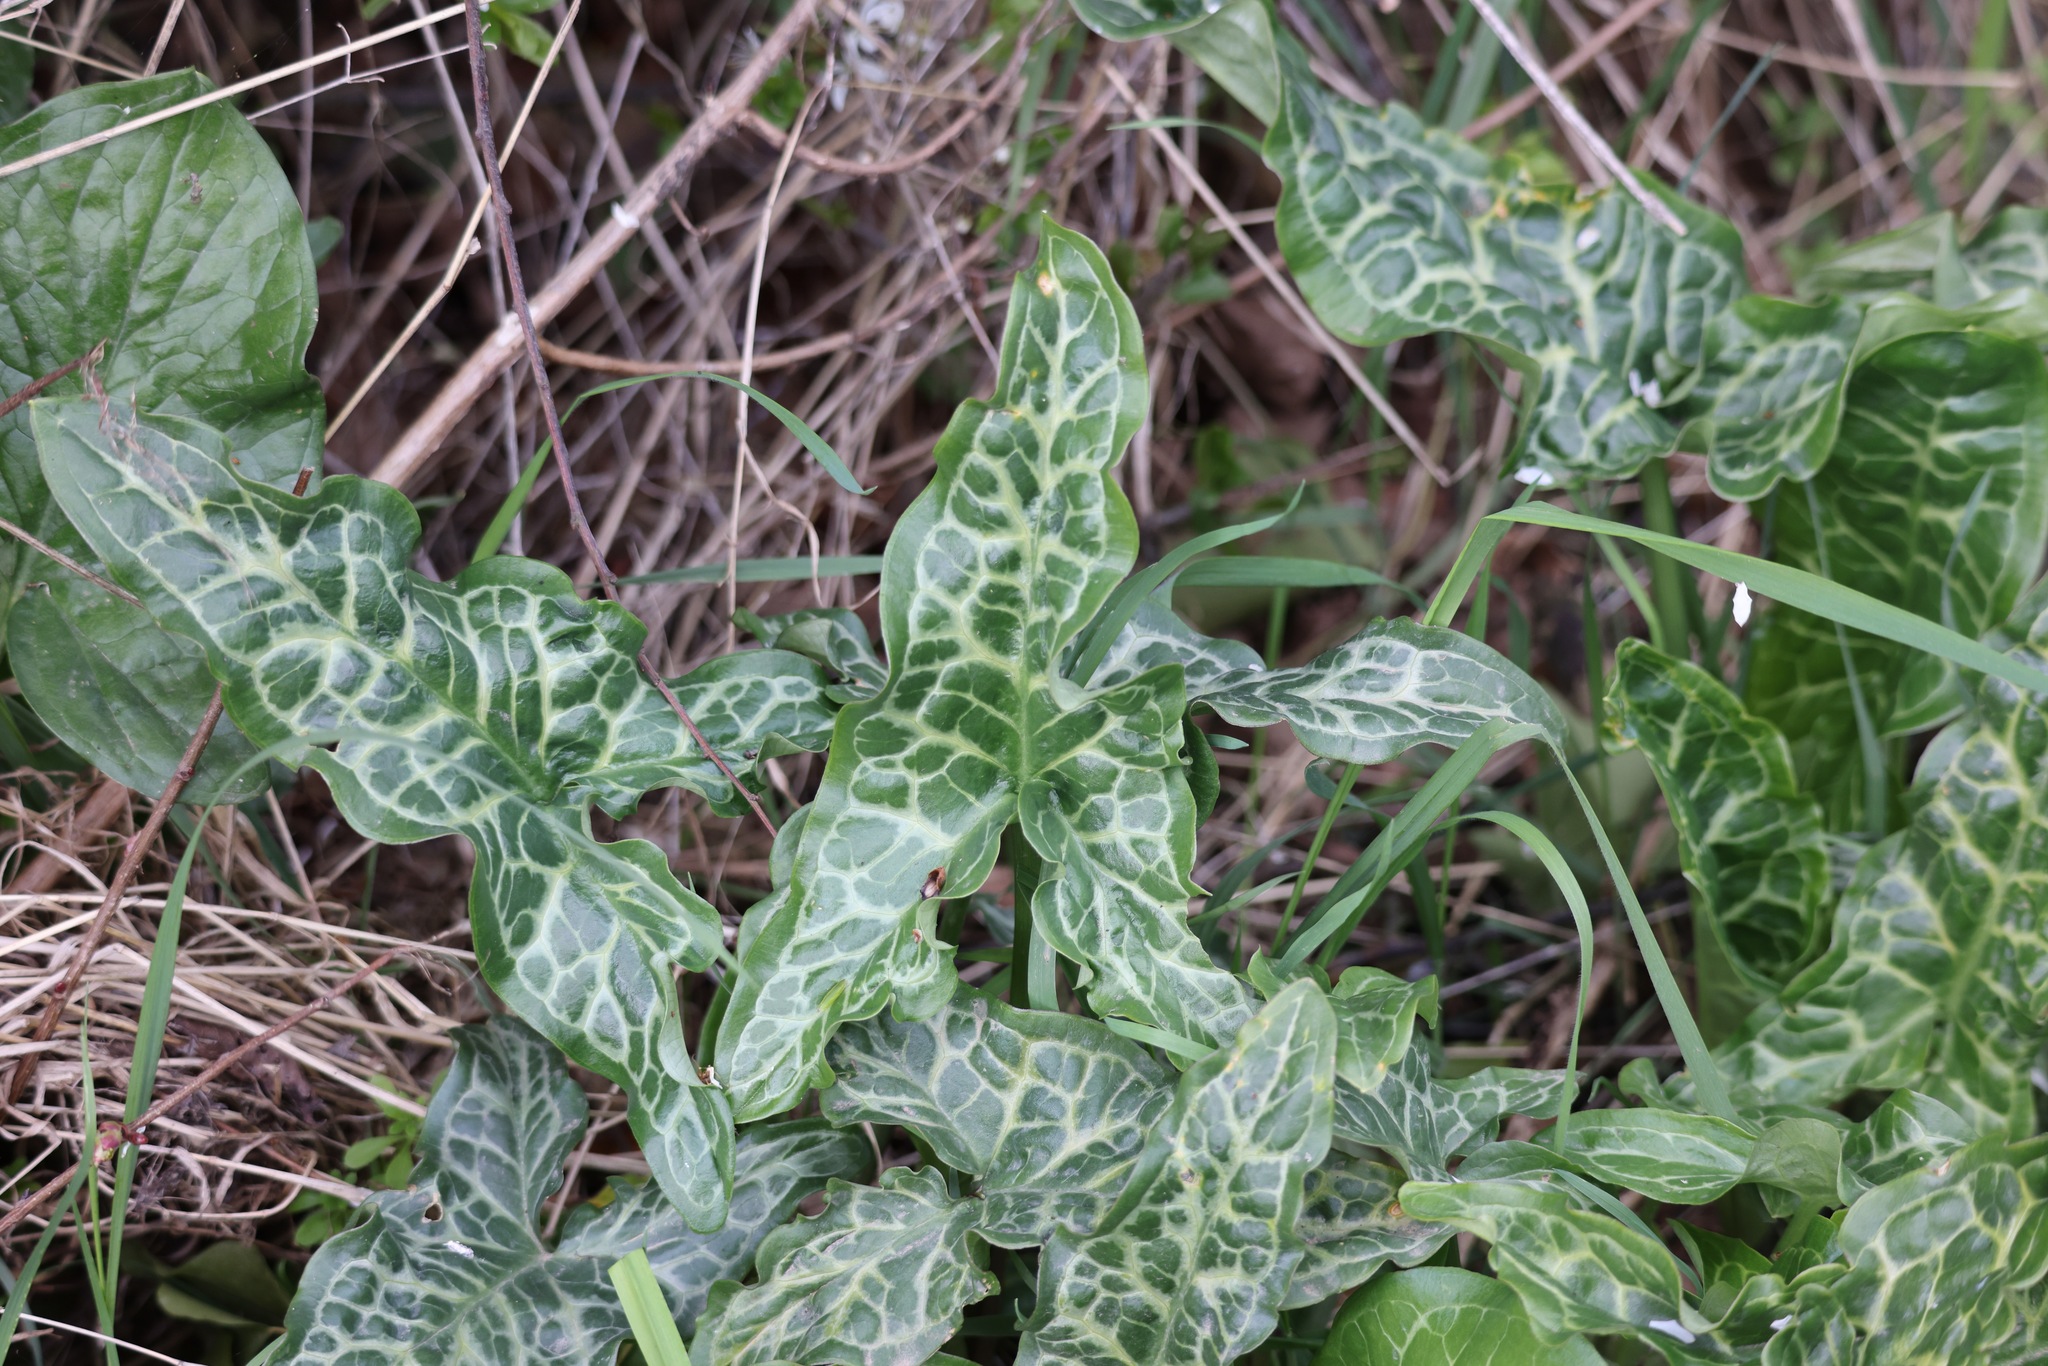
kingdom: Plantae
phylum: Tracheophyta
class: Liliopsida
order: Alismatales
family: Araceae
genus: Arum
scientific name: Arum italicum
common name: Italian lords-and-ladies
